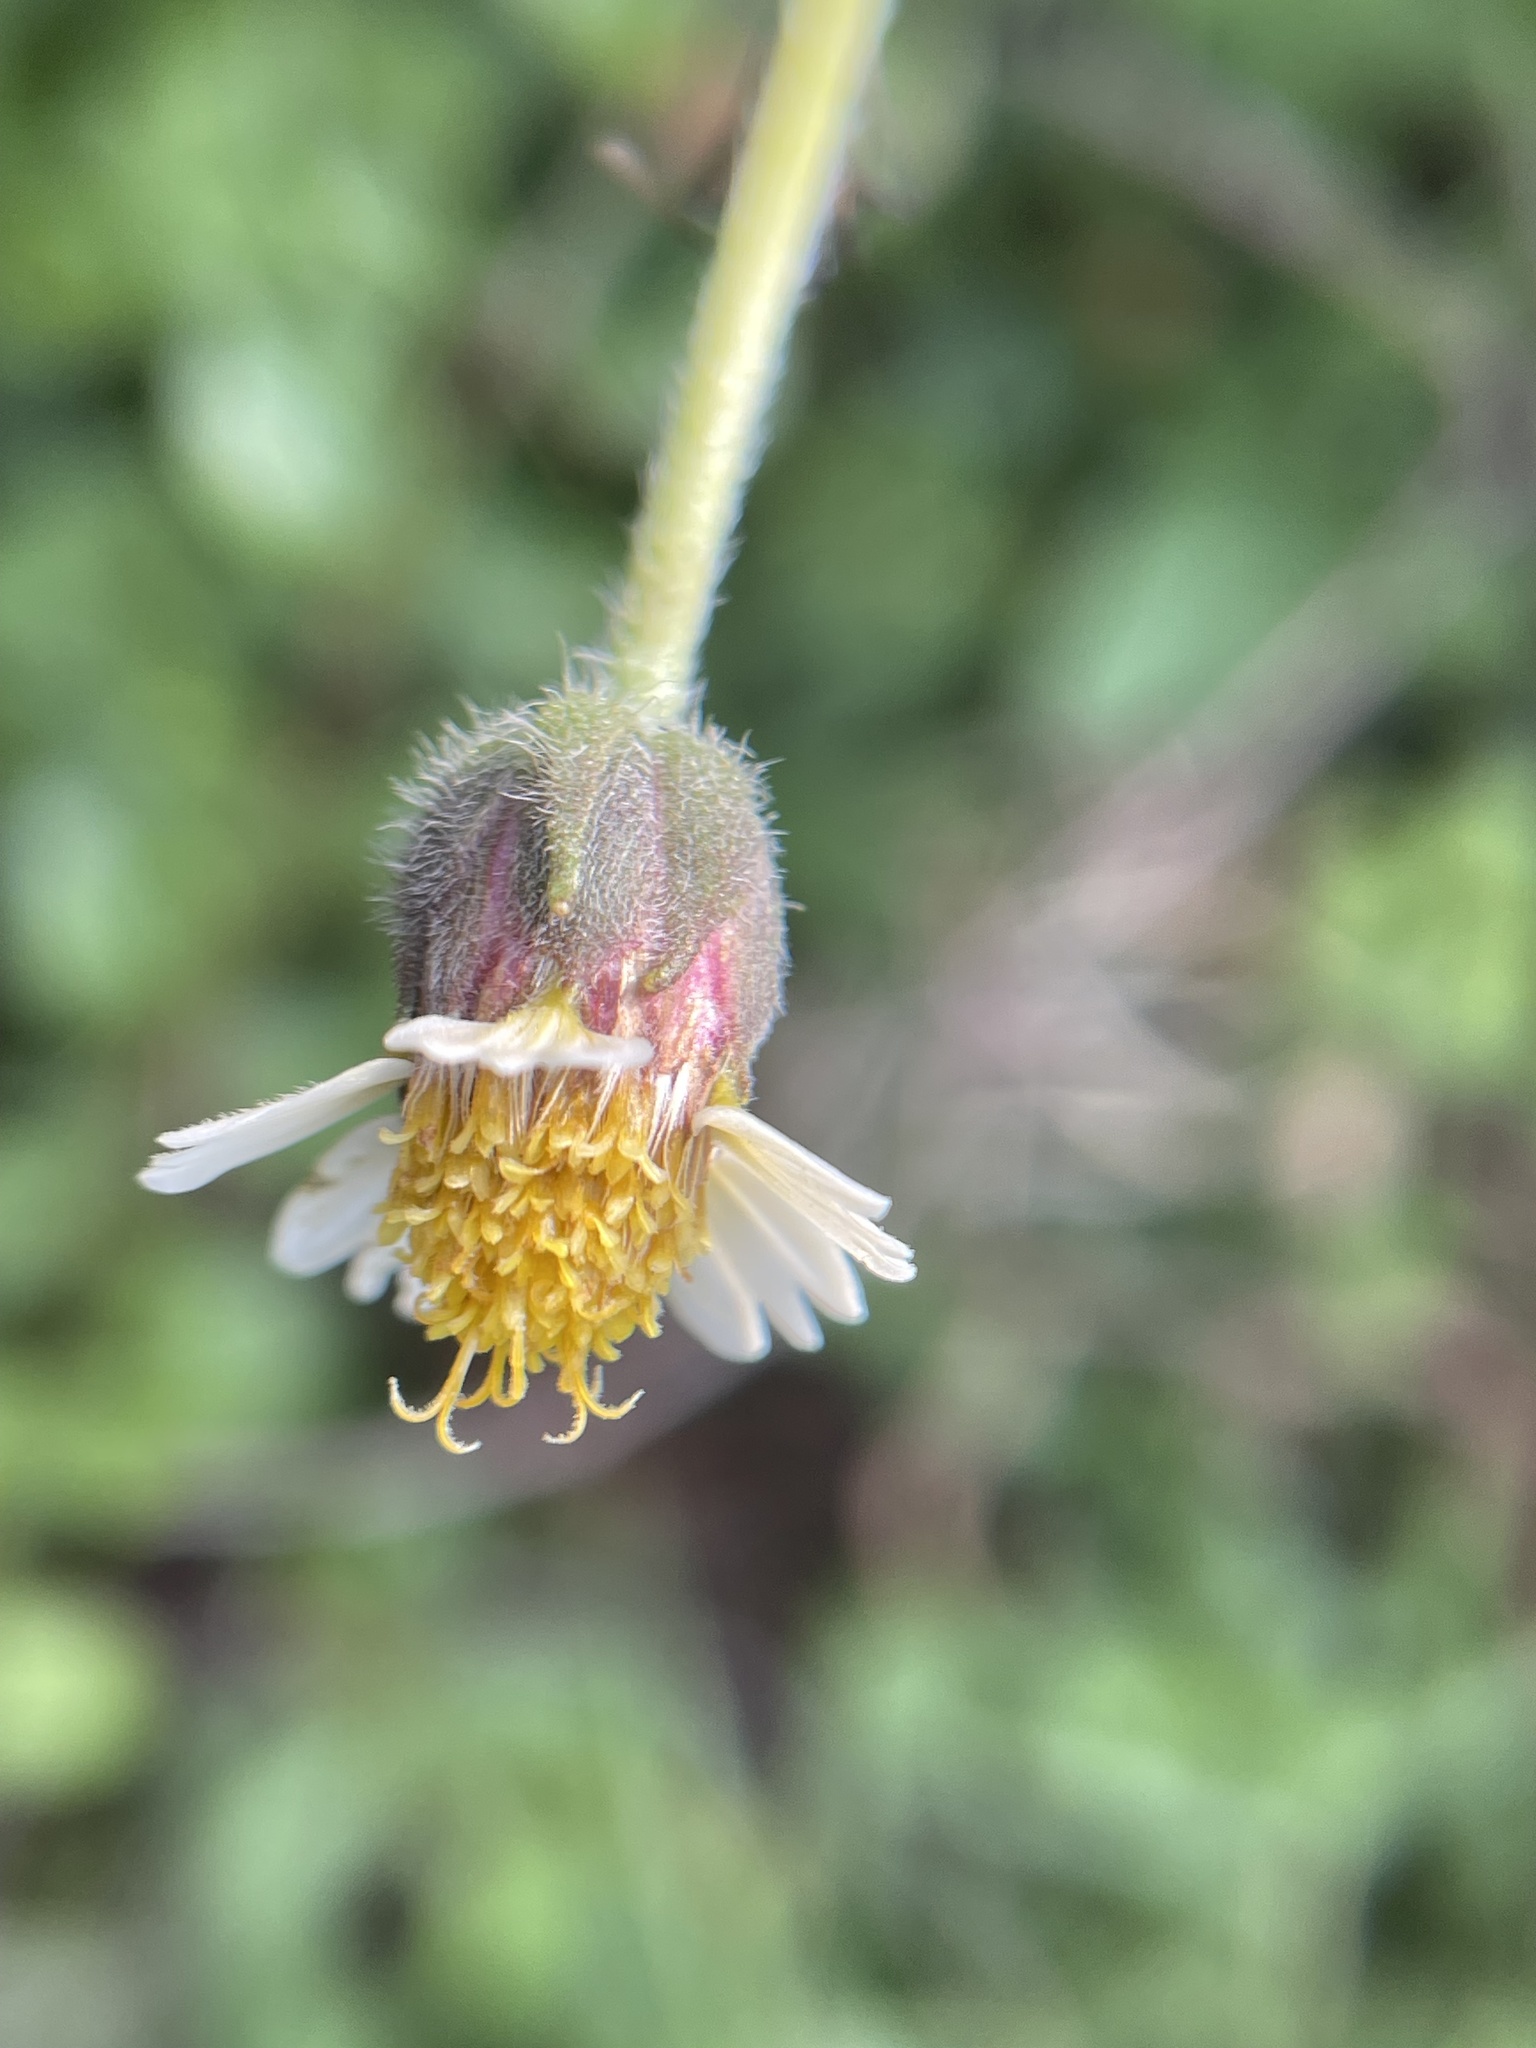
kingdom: Plantae
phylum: Tracheophyta
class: Magnoliopsida
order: Asterales
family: Asteraceae
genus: Tridax
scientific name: Tridax procumbens
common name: Coatbuttons
